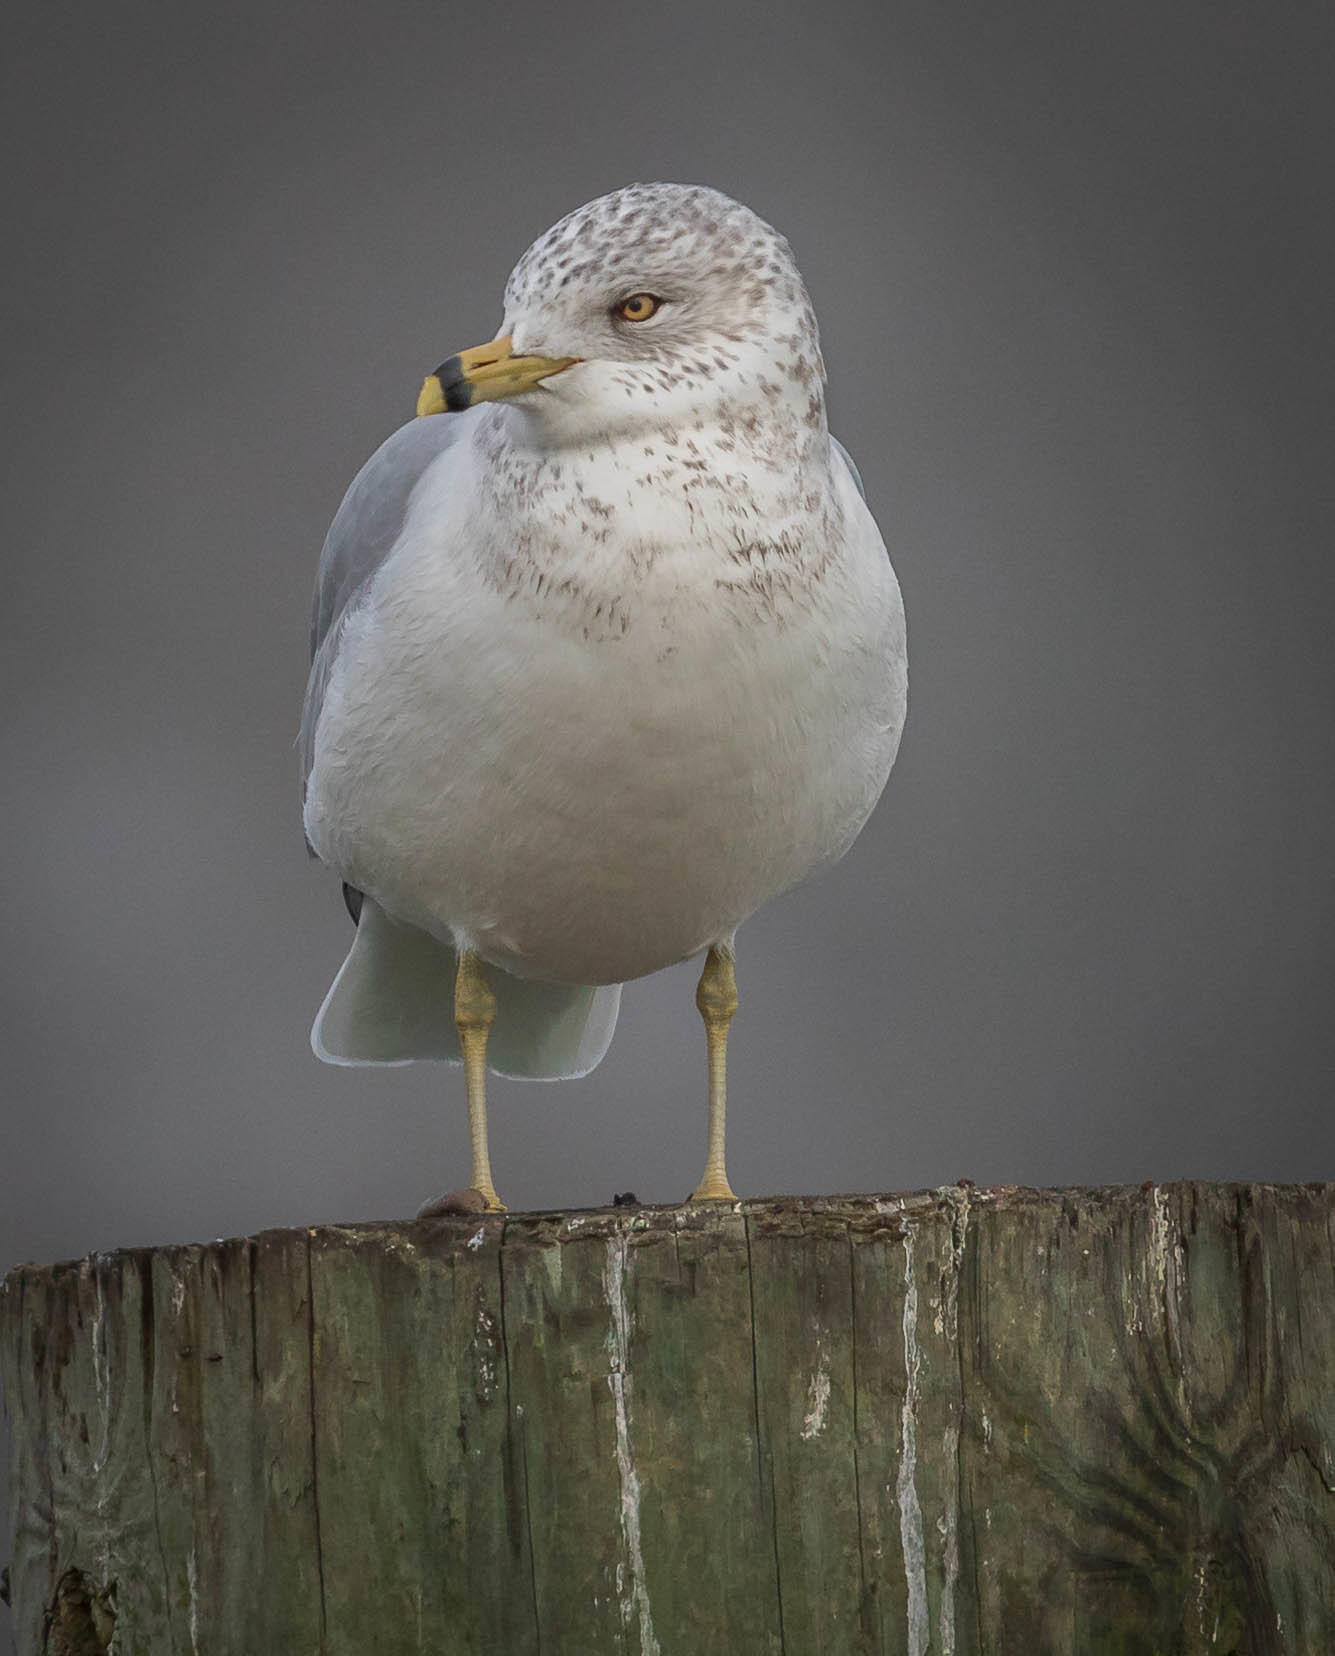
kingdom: Animalia
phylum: Chordata
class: Aves
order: Charadriiformes
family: Laridae
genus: Larus
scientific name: Larus delawarensis
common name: Ring-billed gull
